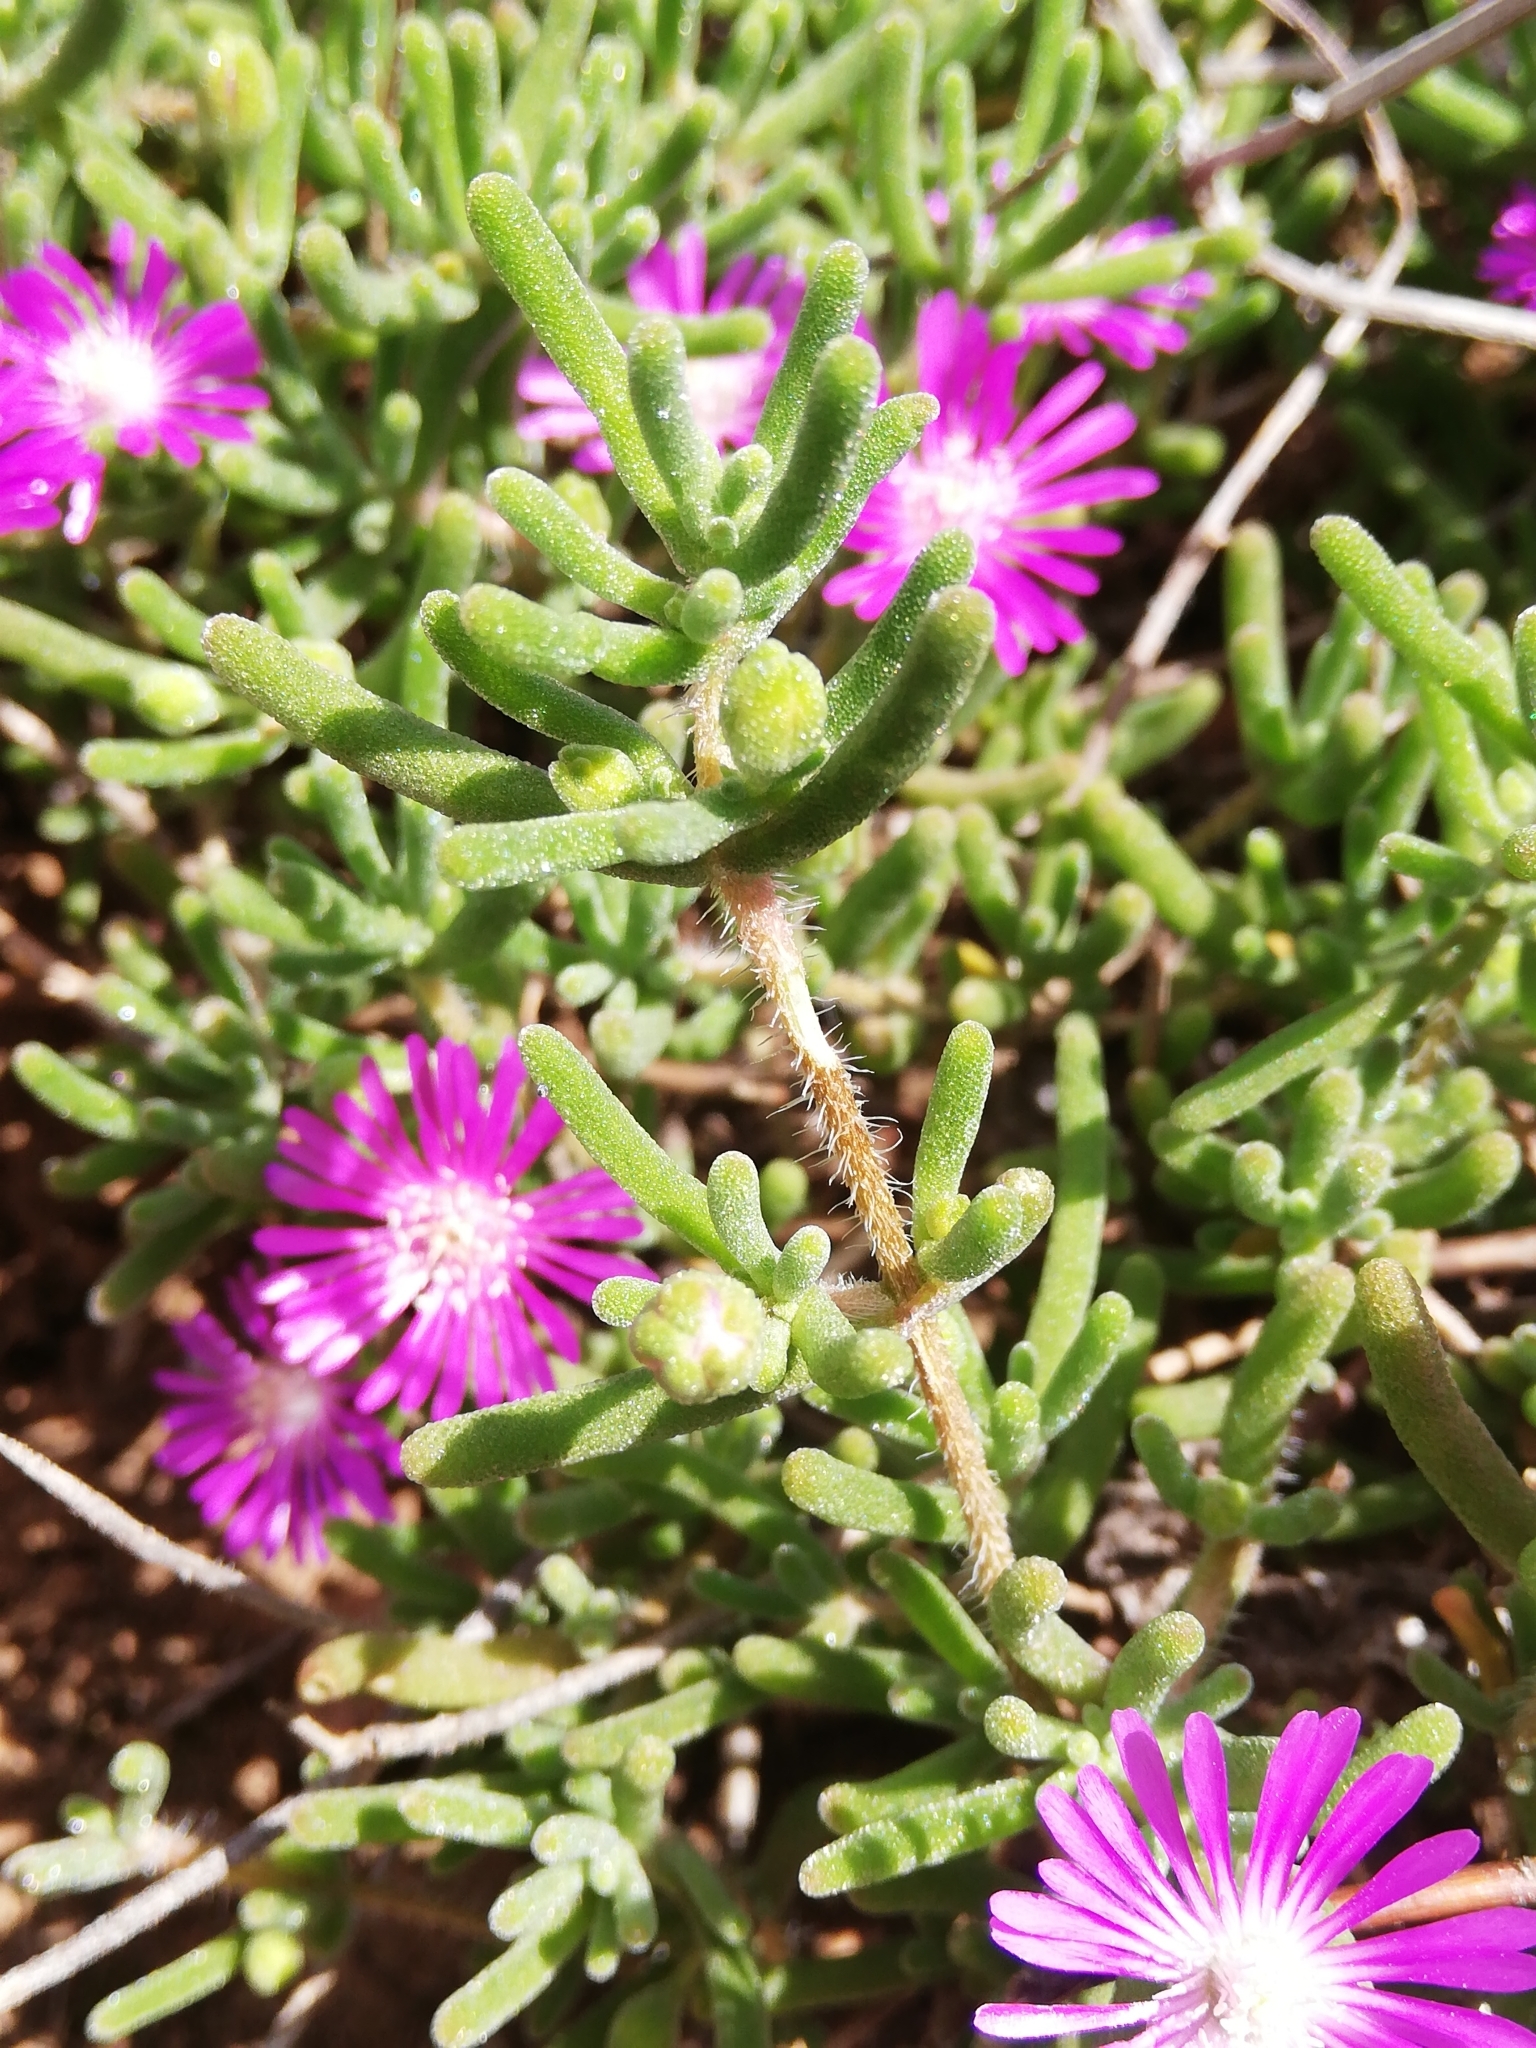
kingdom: Plantae
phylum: Tracheophyta
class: Magnoliopsida
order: Caryophyllales
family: Aizoaceae
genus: Drosanthemum
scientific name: Drosanthemum hispidum
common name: Hairy dewflower
